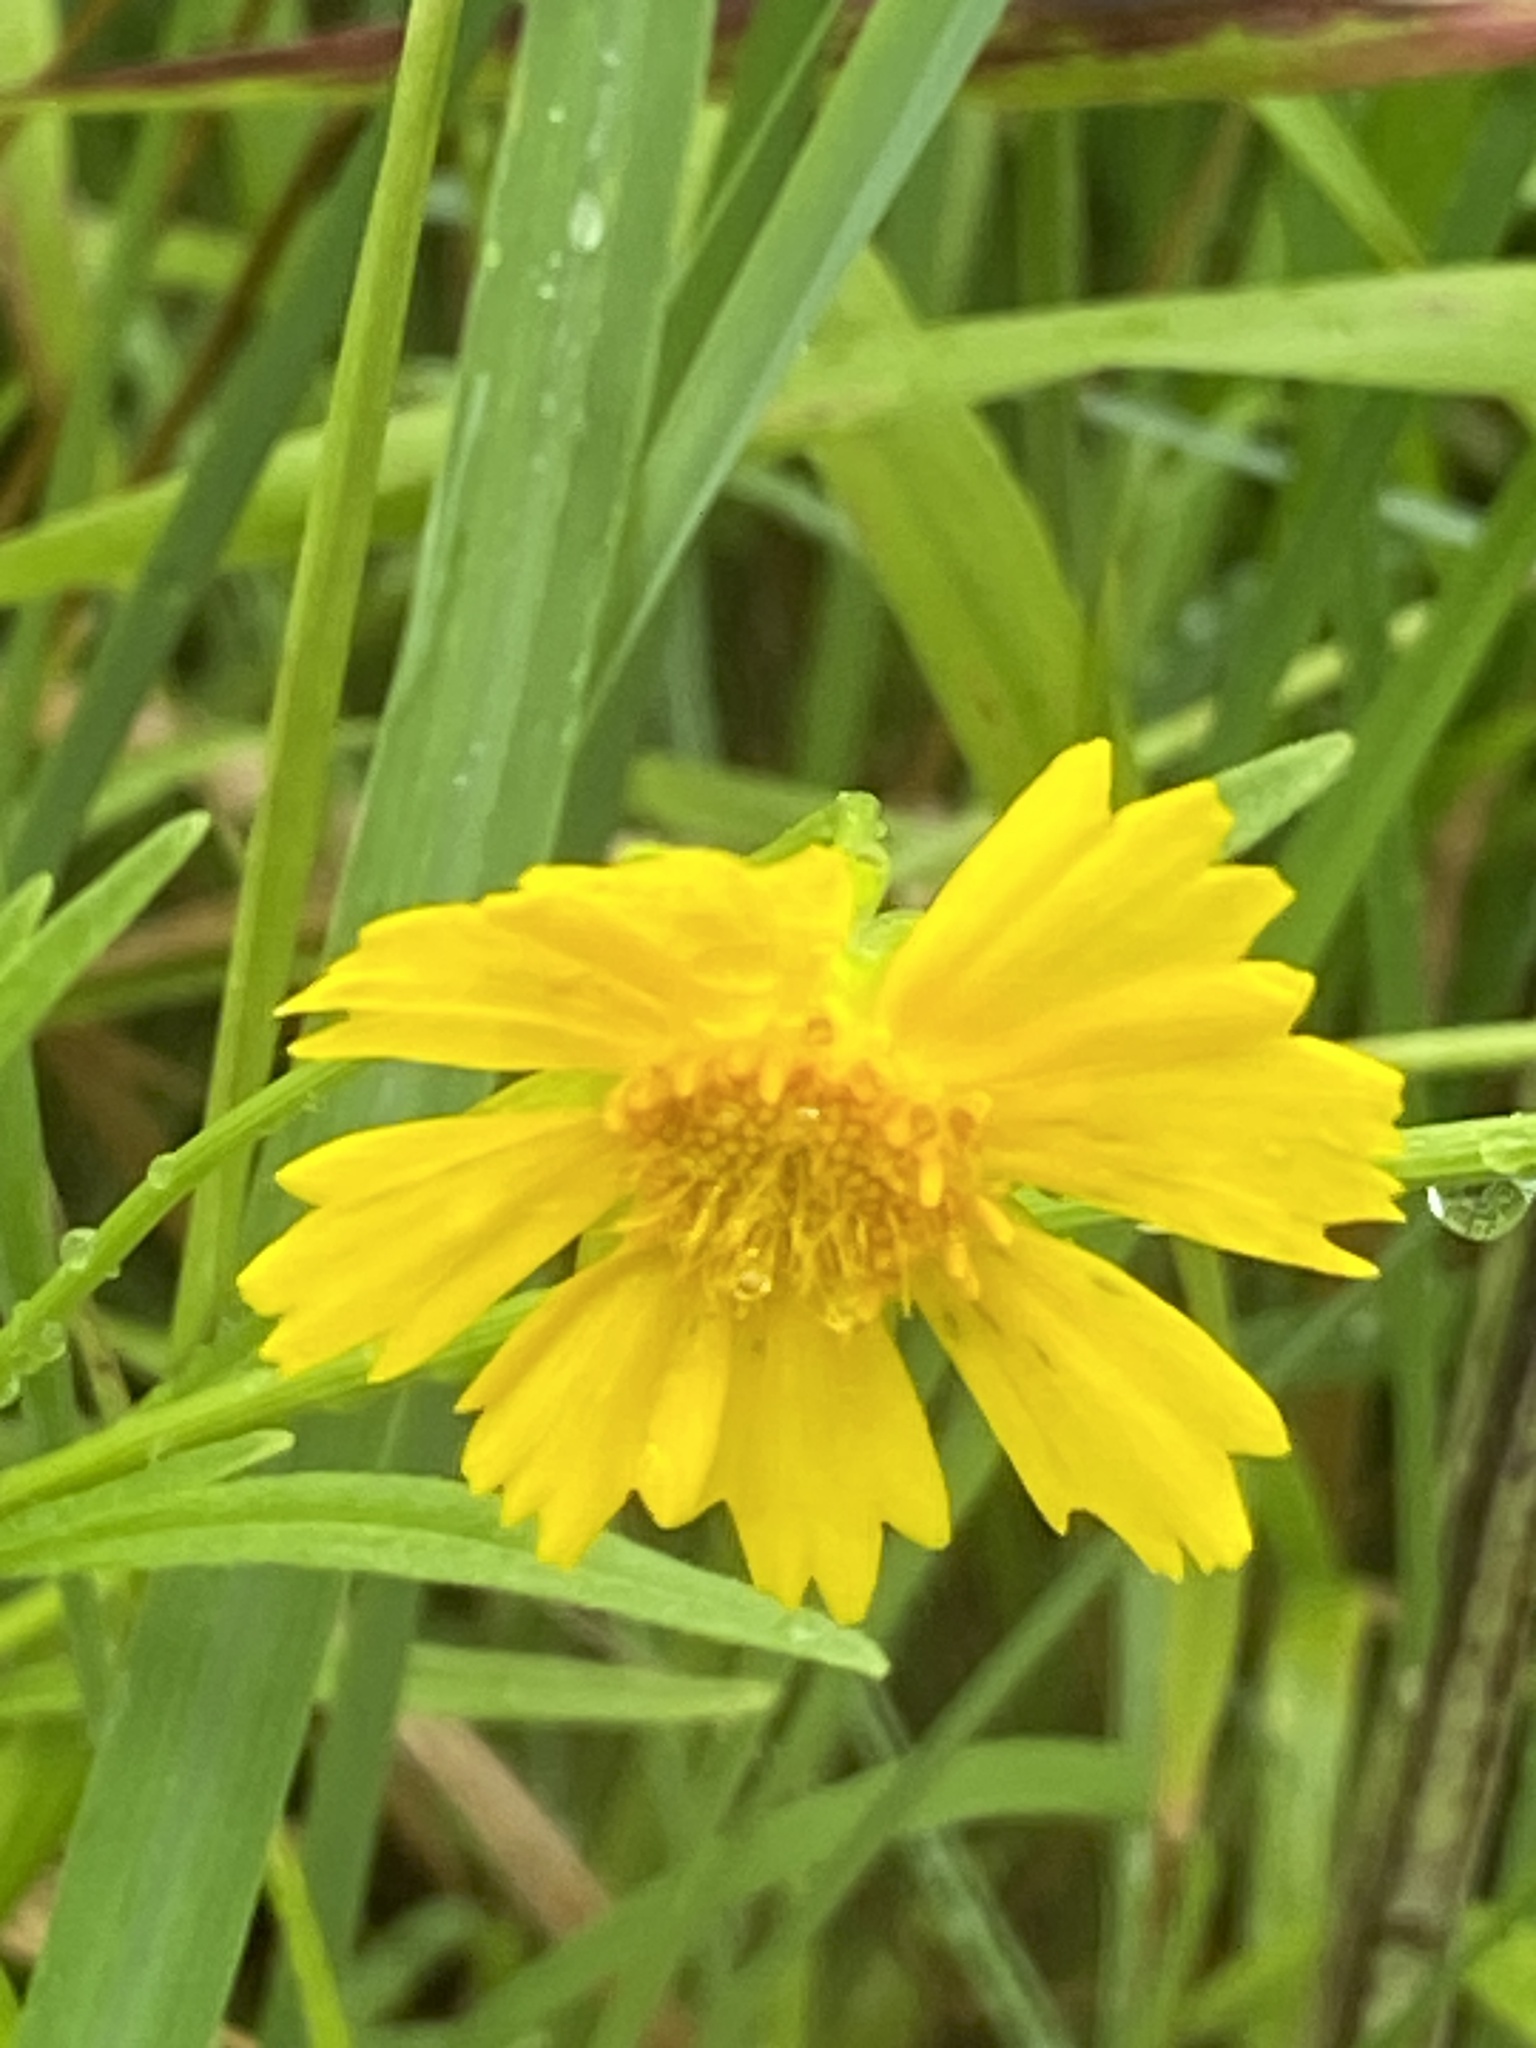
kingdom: Plantae
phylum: Tracheophyta
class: Magnoliopsida
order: Asterales
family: Asteraceae
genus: Coreopsis
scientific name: Coreopsis lanceolata
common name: Garden coreopsis
